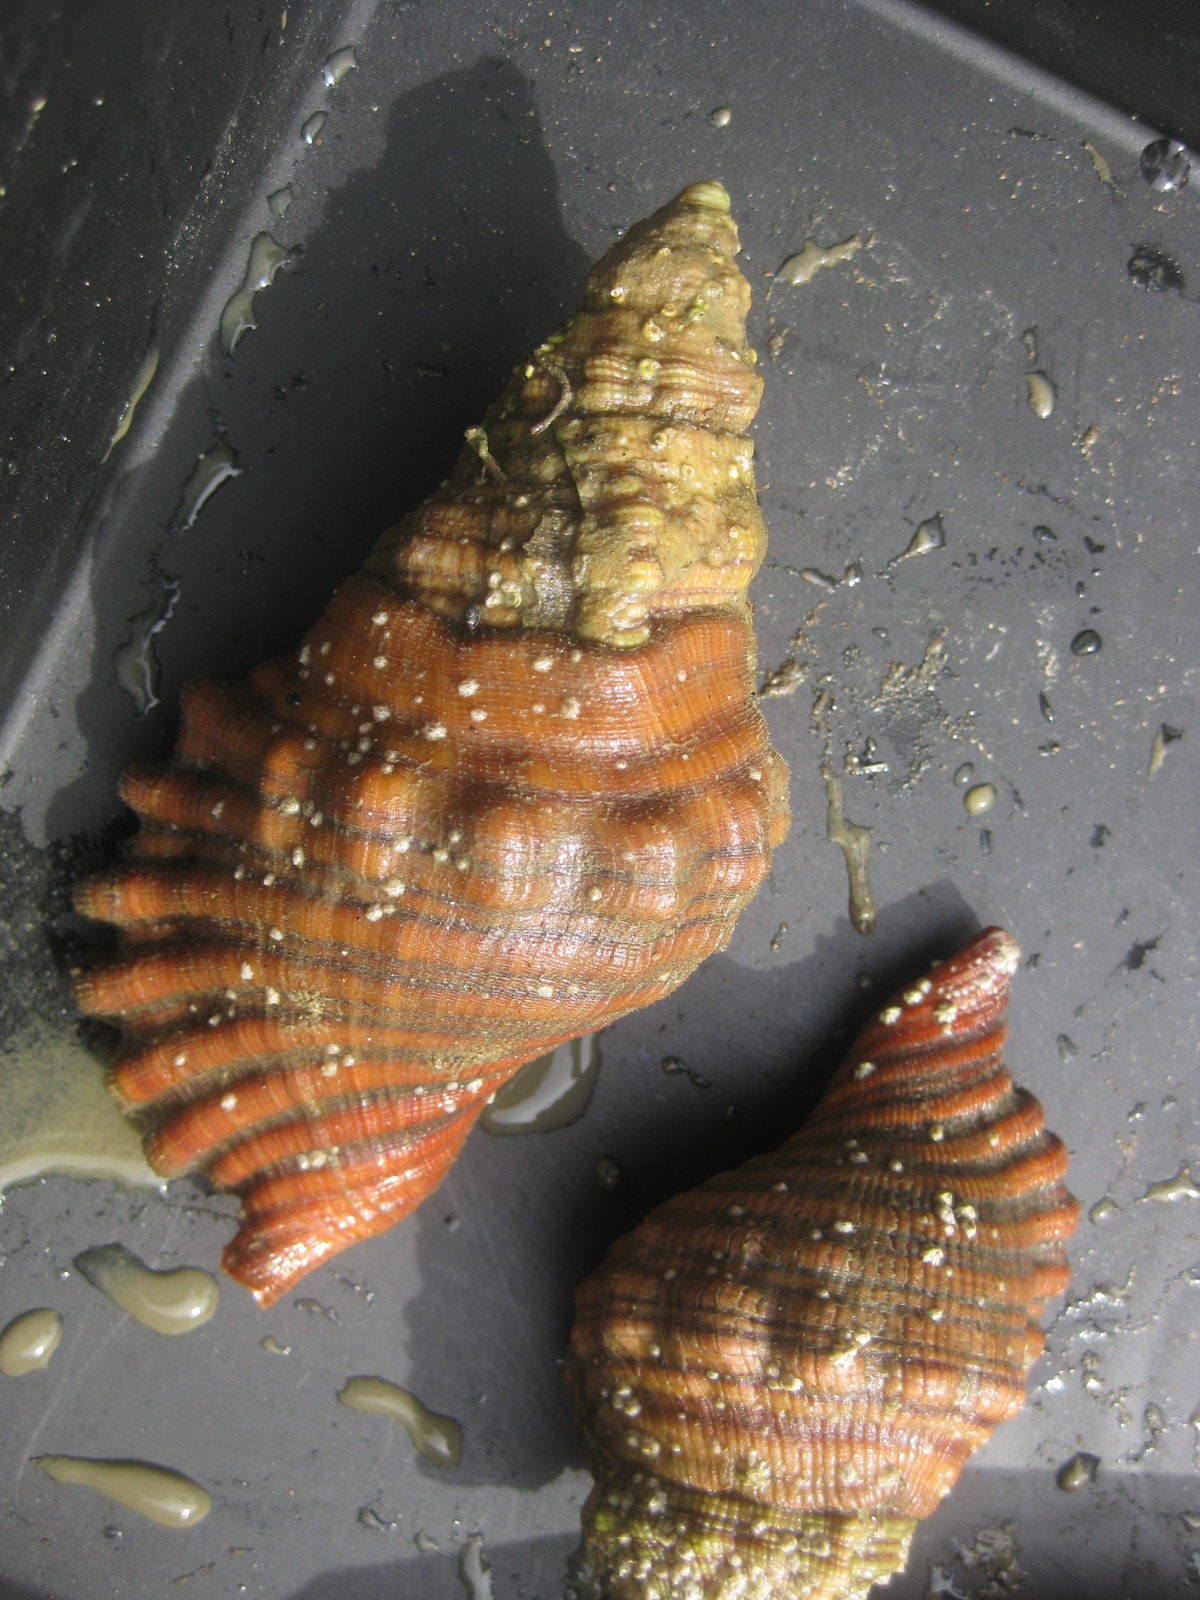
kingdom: Animalia
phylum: Mollusca
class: Gastropoda
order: Littorinimorpha
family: Cymatiidae
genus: Cabestana
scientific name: Cabestana spengleri
